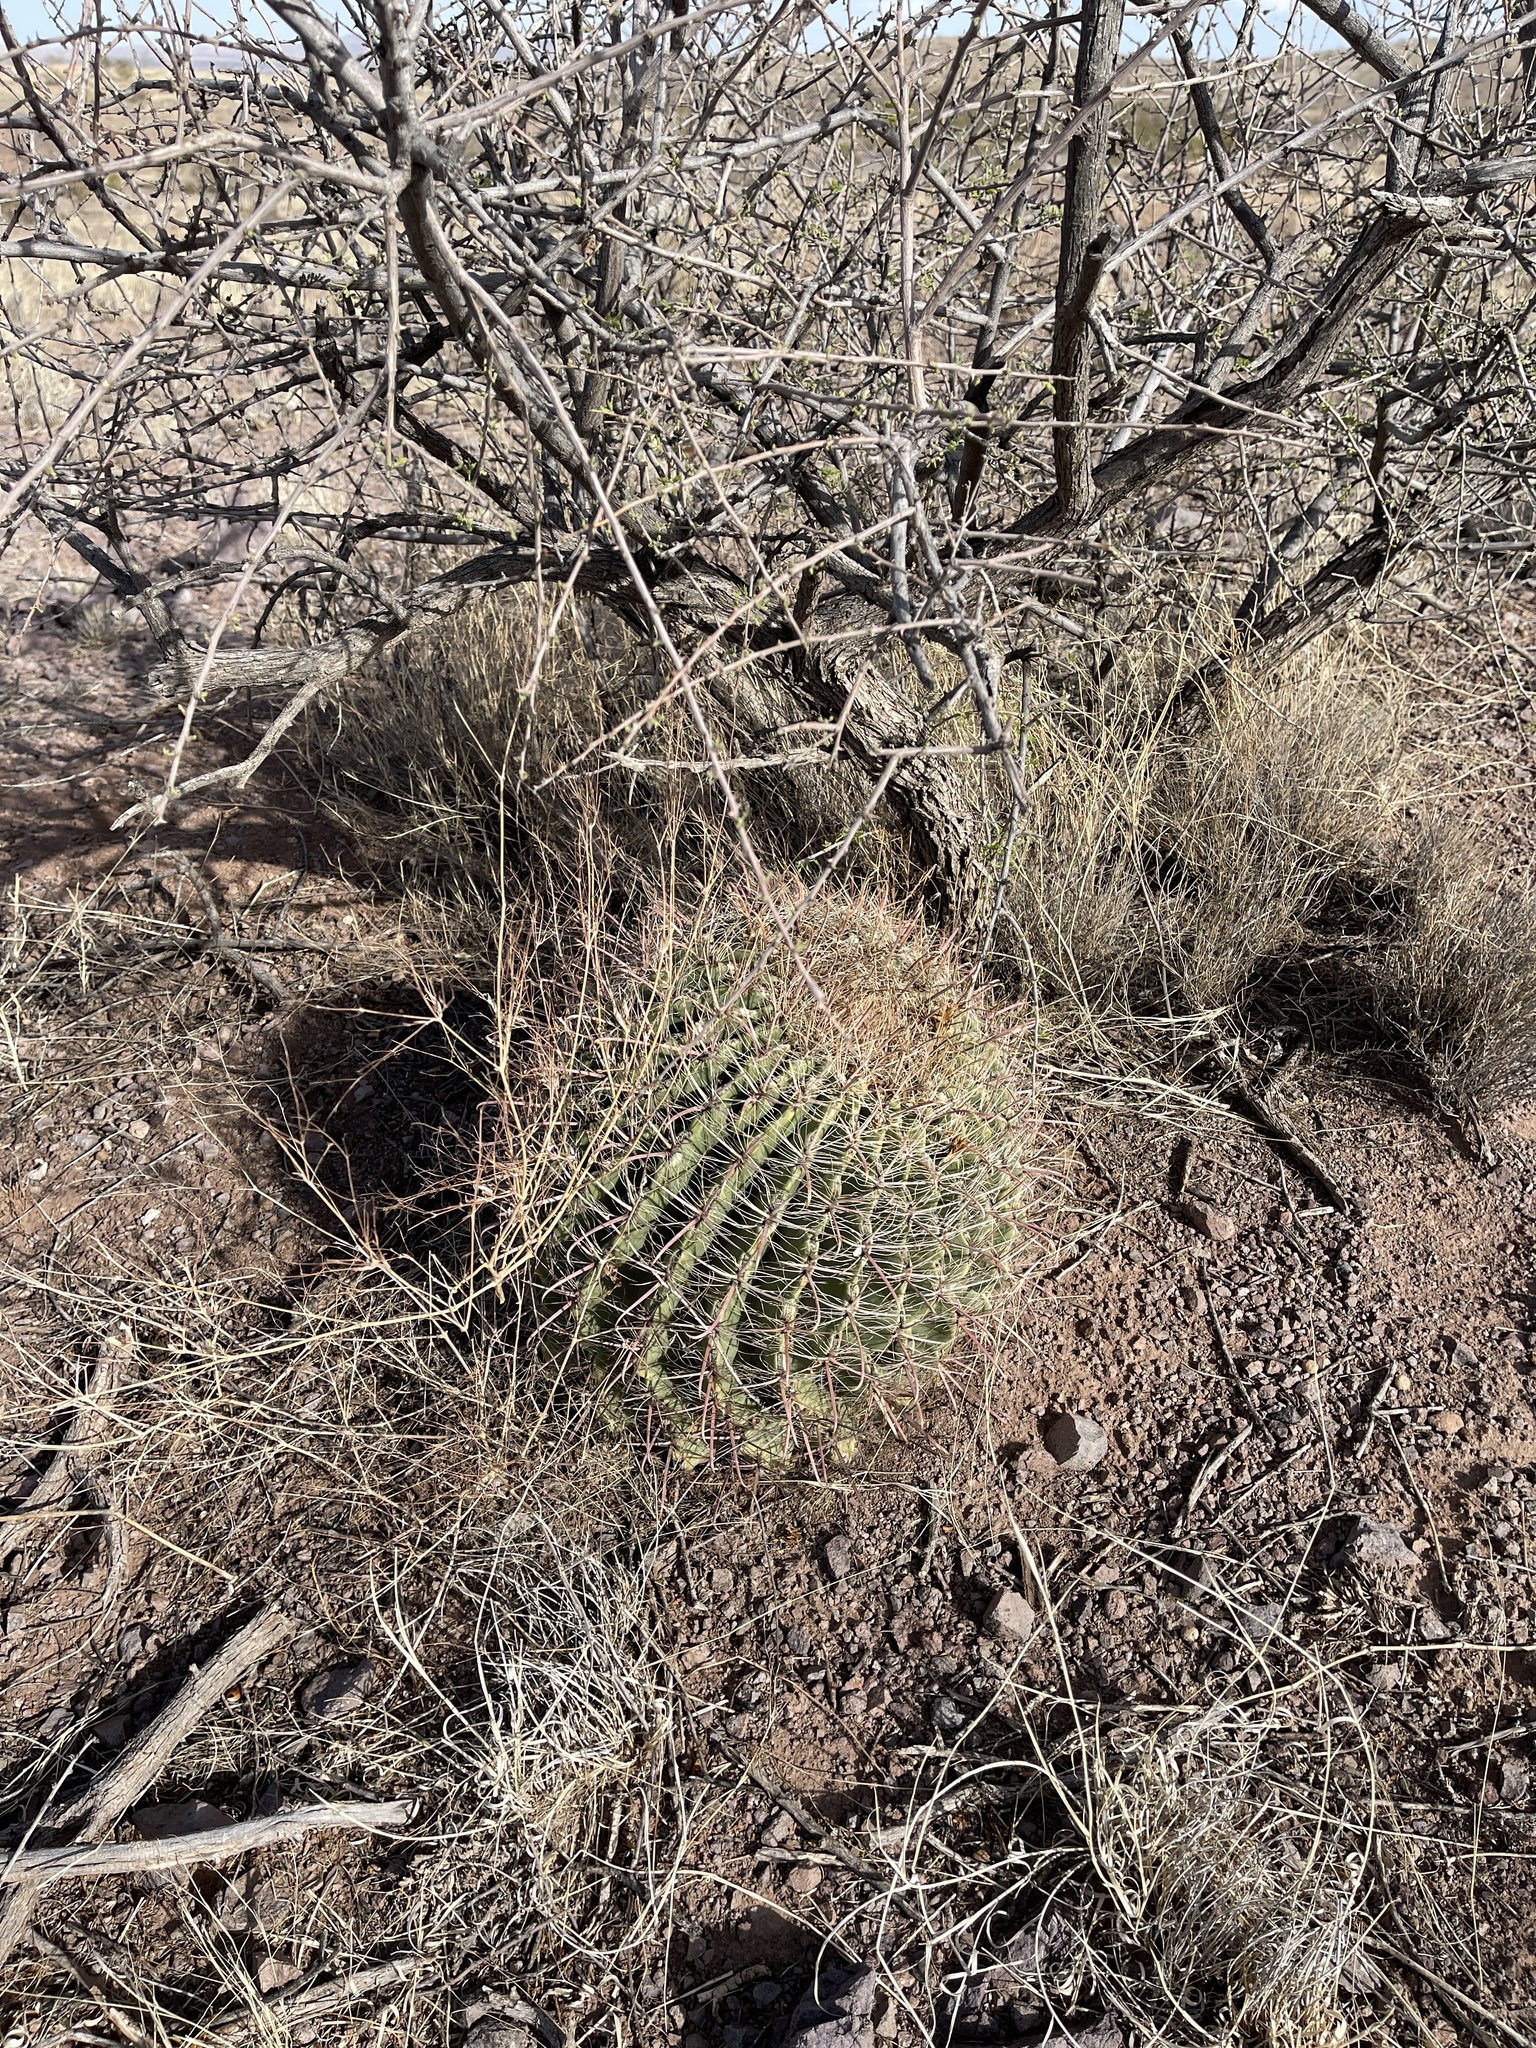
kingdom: Plantae
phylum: Tracheophyta
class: Magnoliopsida
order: Caryophyllales
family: Cactaceae
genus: Ferocactus
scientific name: Ferocactus wislizeni
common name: Candy barrel cactus
